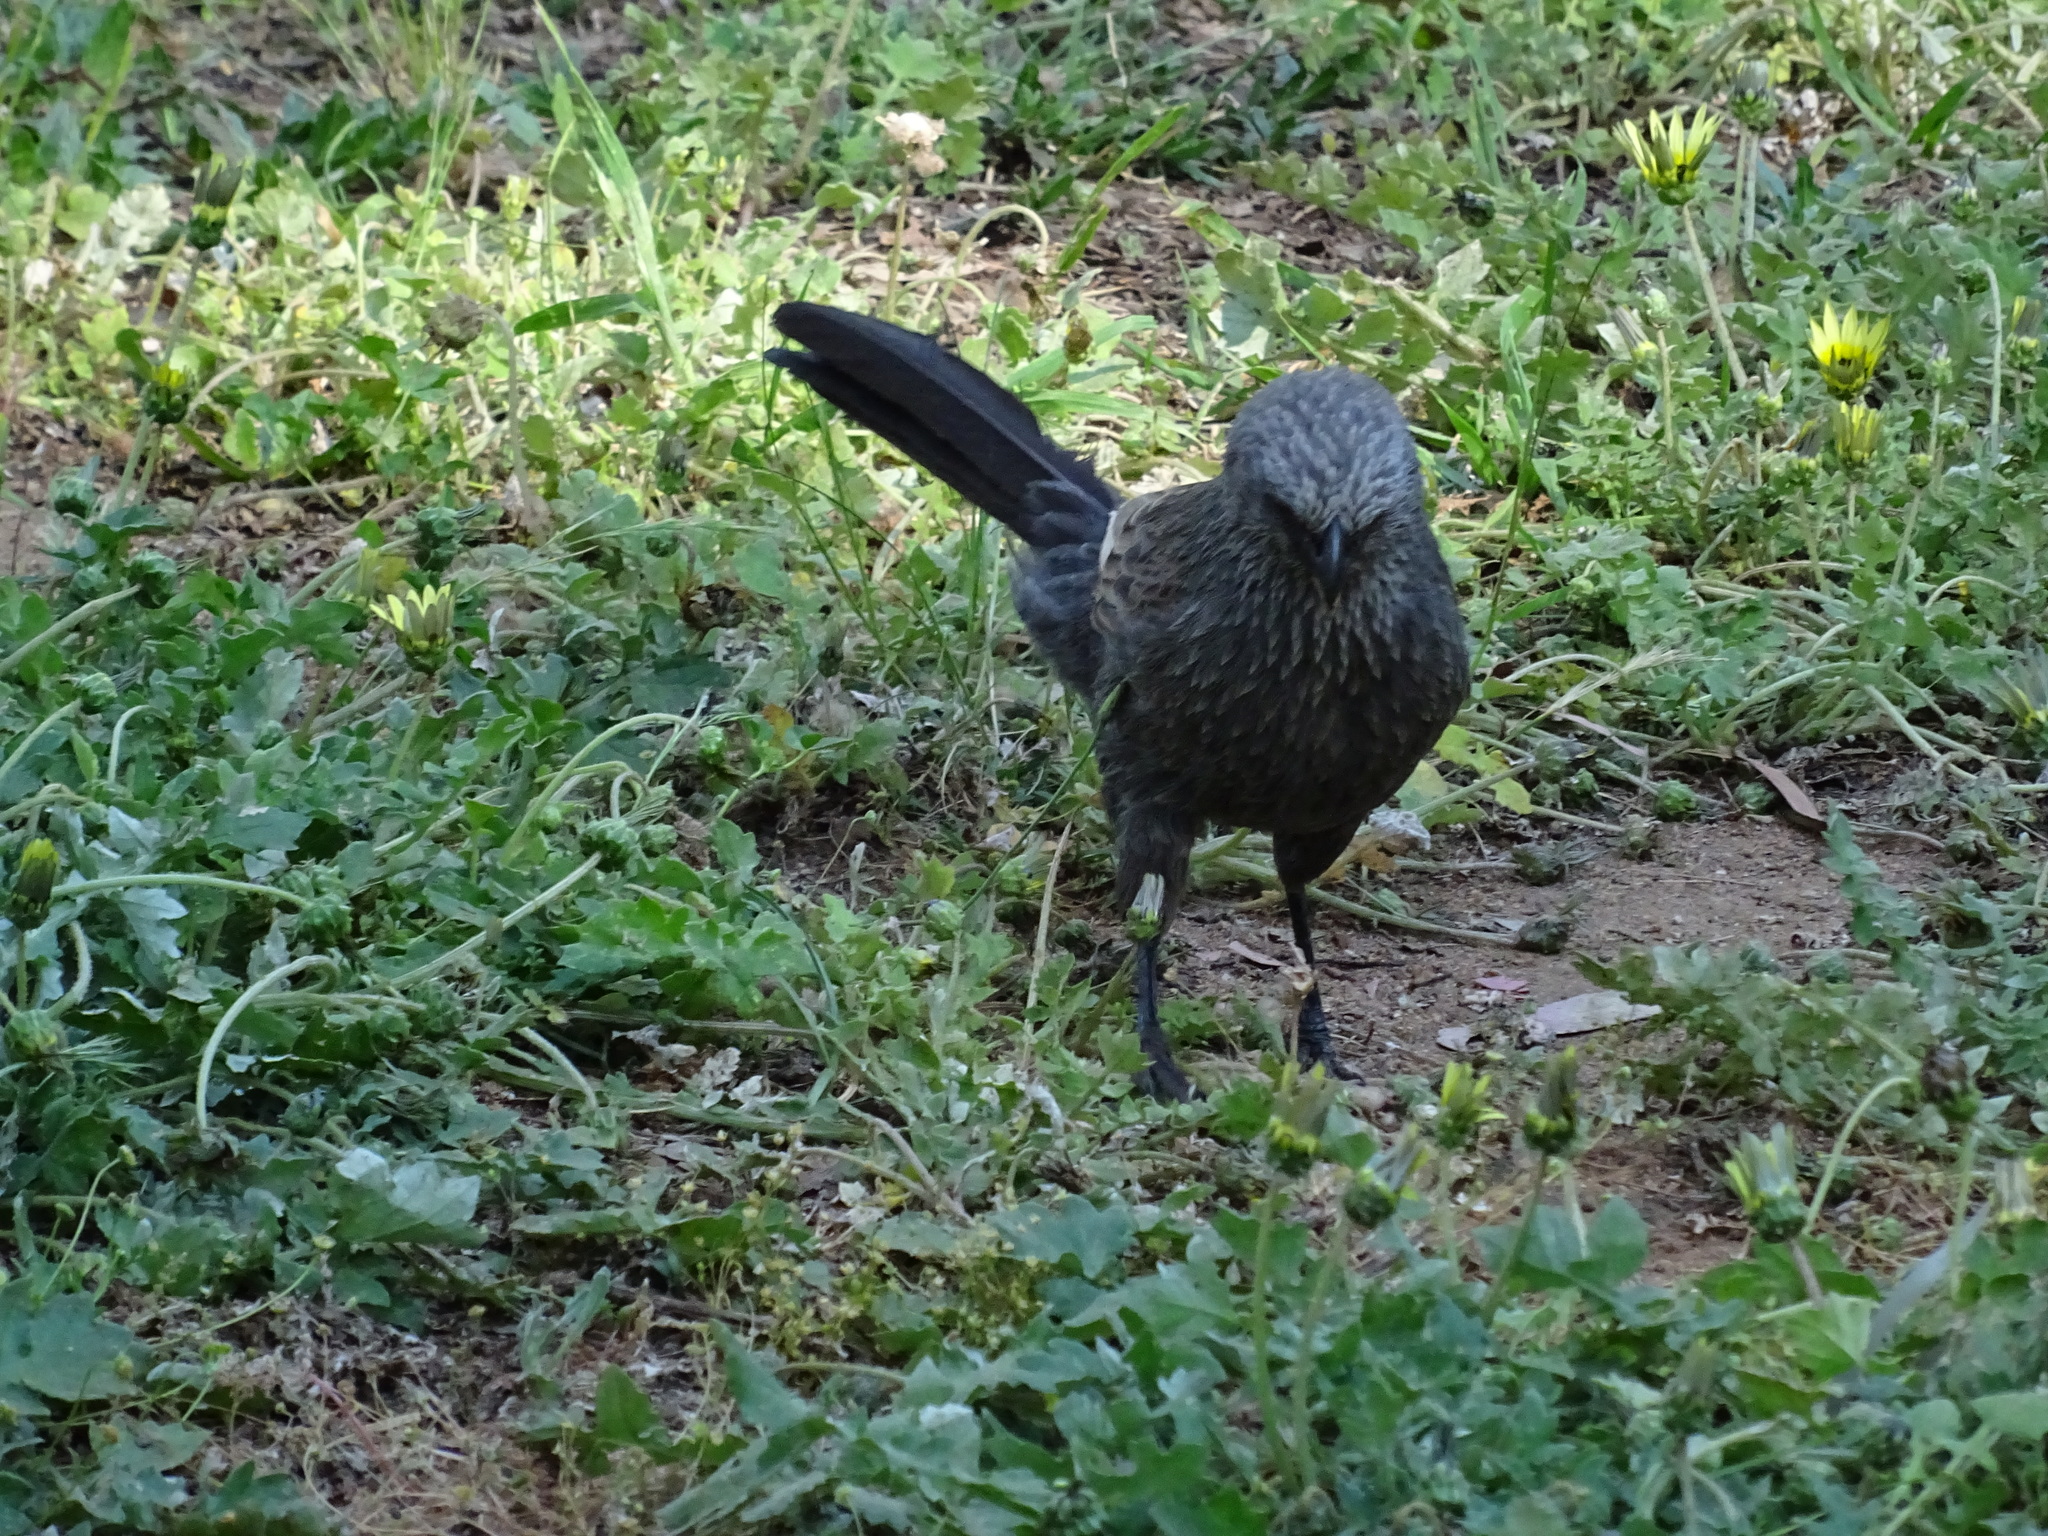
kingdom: Animalia
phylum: Chordata
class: Aves
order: Passeriformes
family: Corcoracidae
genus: Struthidea
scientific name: Struthidea cinerea
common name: Apostlebird
